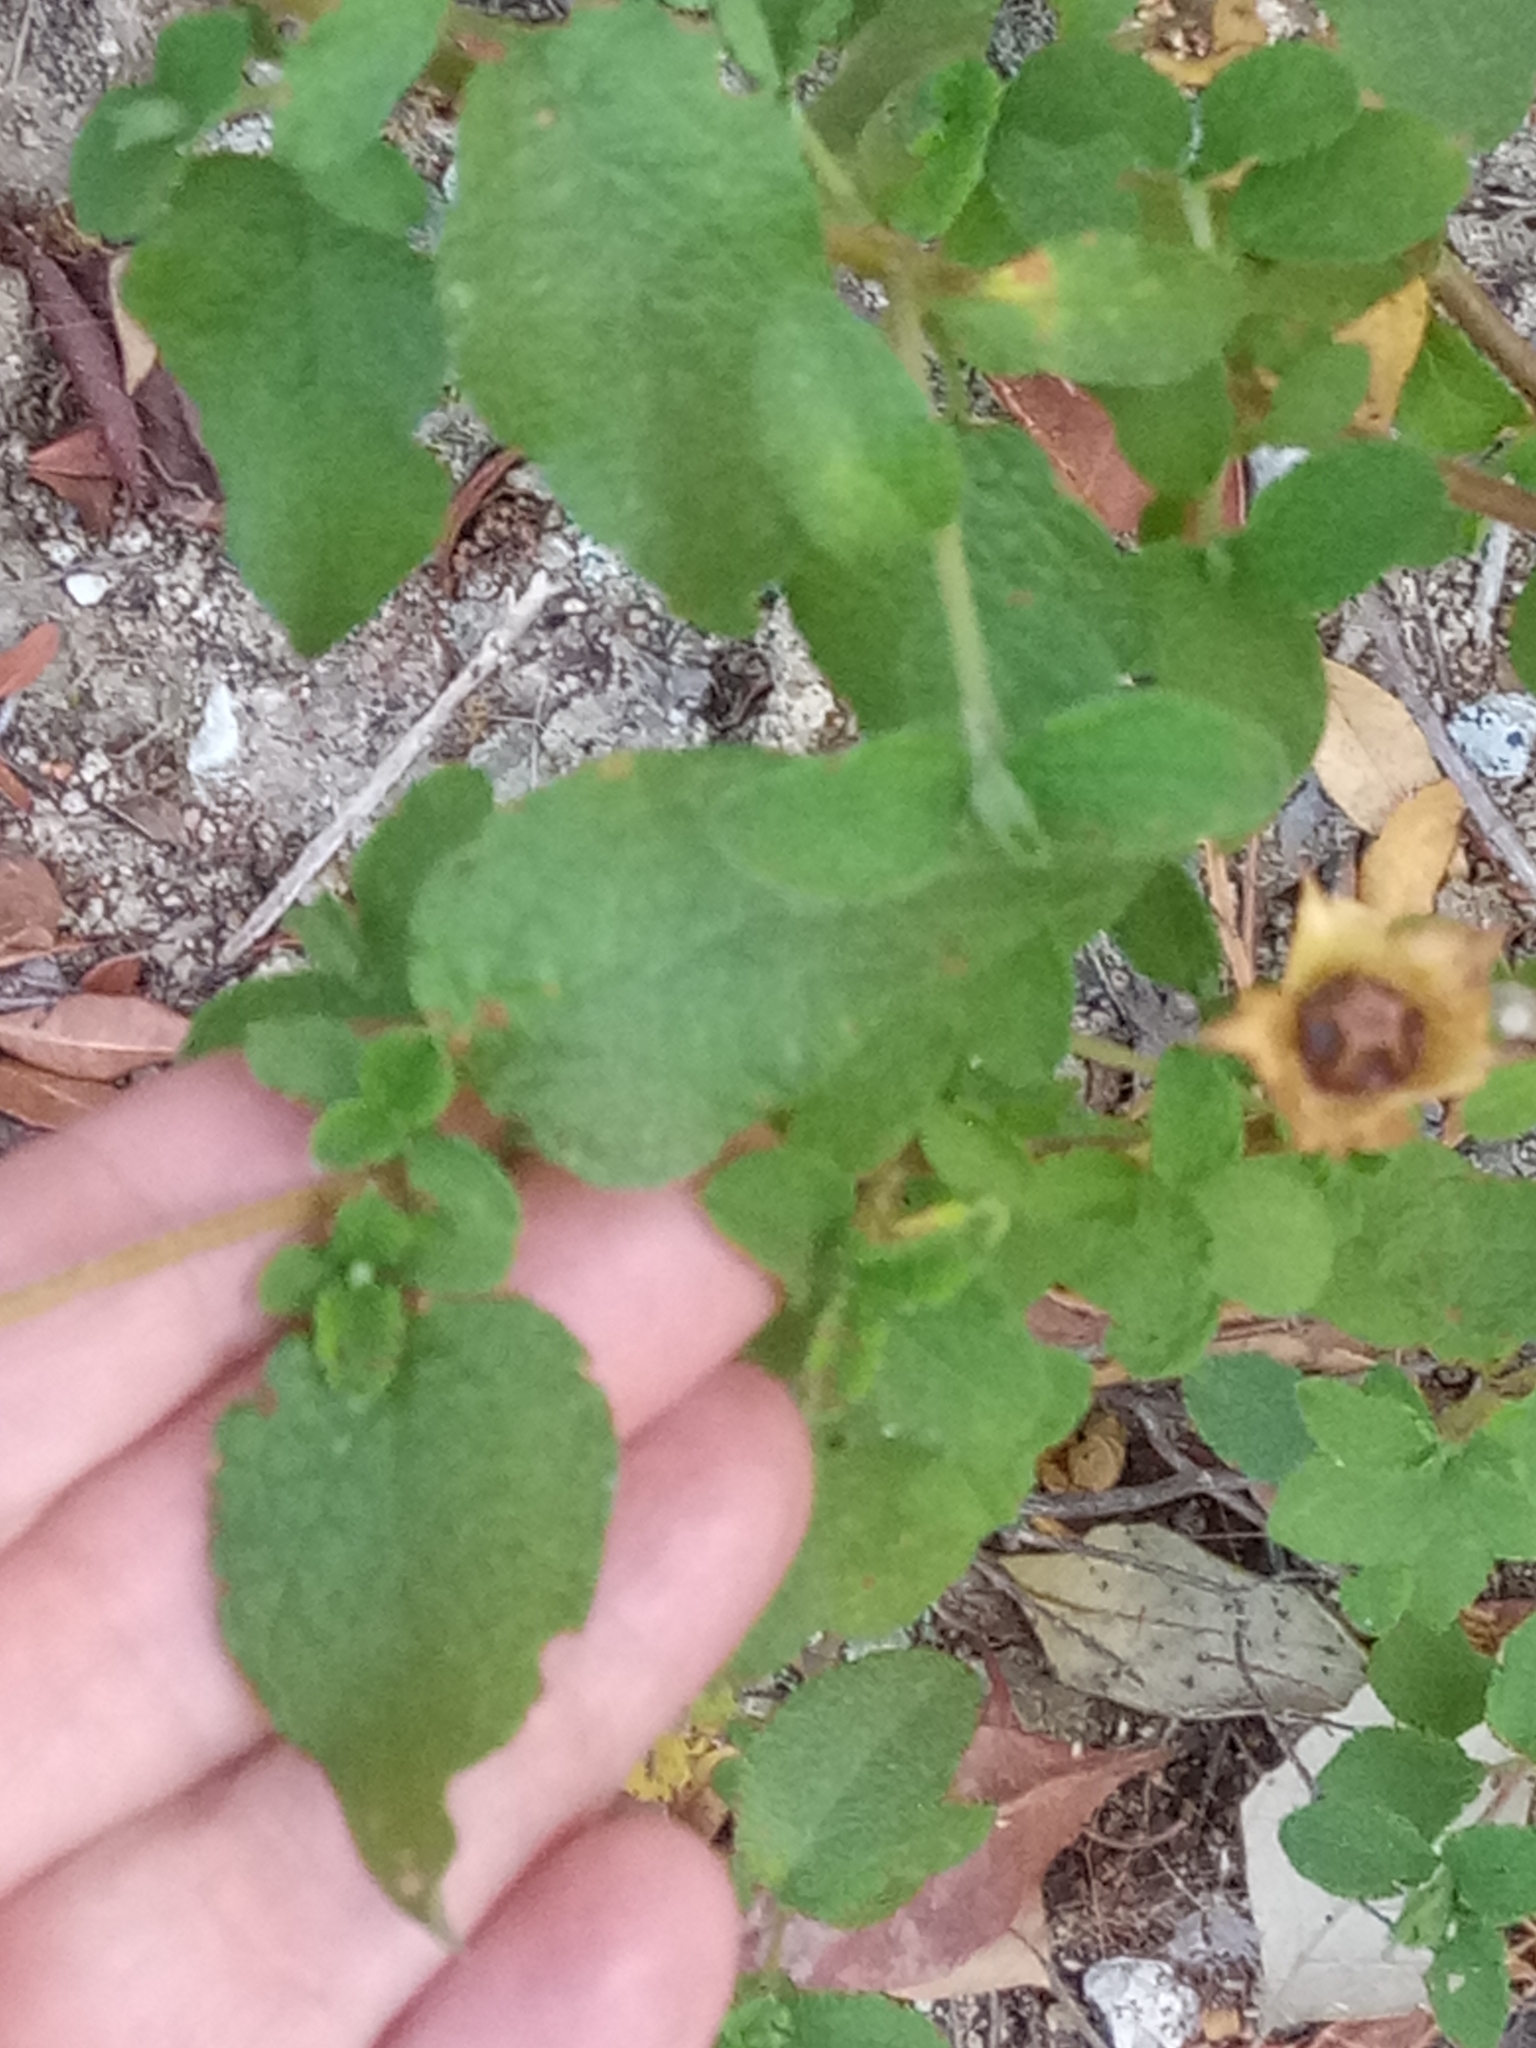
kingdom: Plantae
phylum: Tracheophyta
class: Magnoliopsida
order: Malvales
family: Cistaceae
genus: Cistus
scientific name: Cistus salviifolius
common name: Salvia cistus
